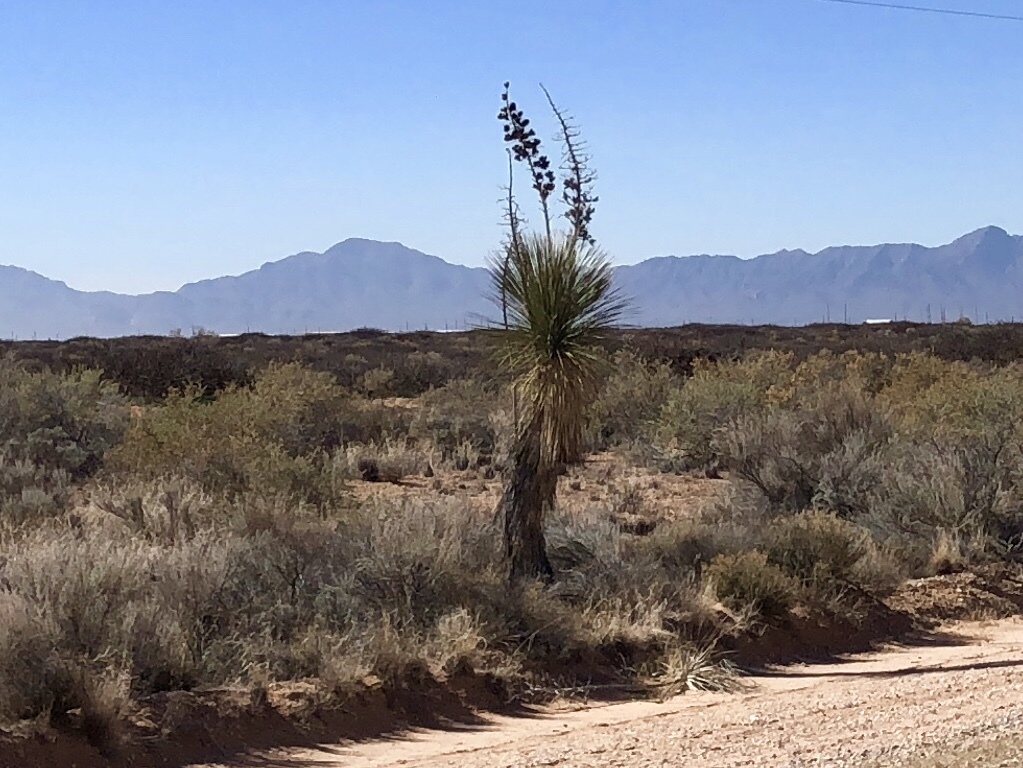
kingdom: Plantae
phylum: Tracheophyta
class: Liliopsida
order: Asparagales
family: Asparagaceae
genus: Yucca
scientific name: Yucca elata
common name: Palmella
